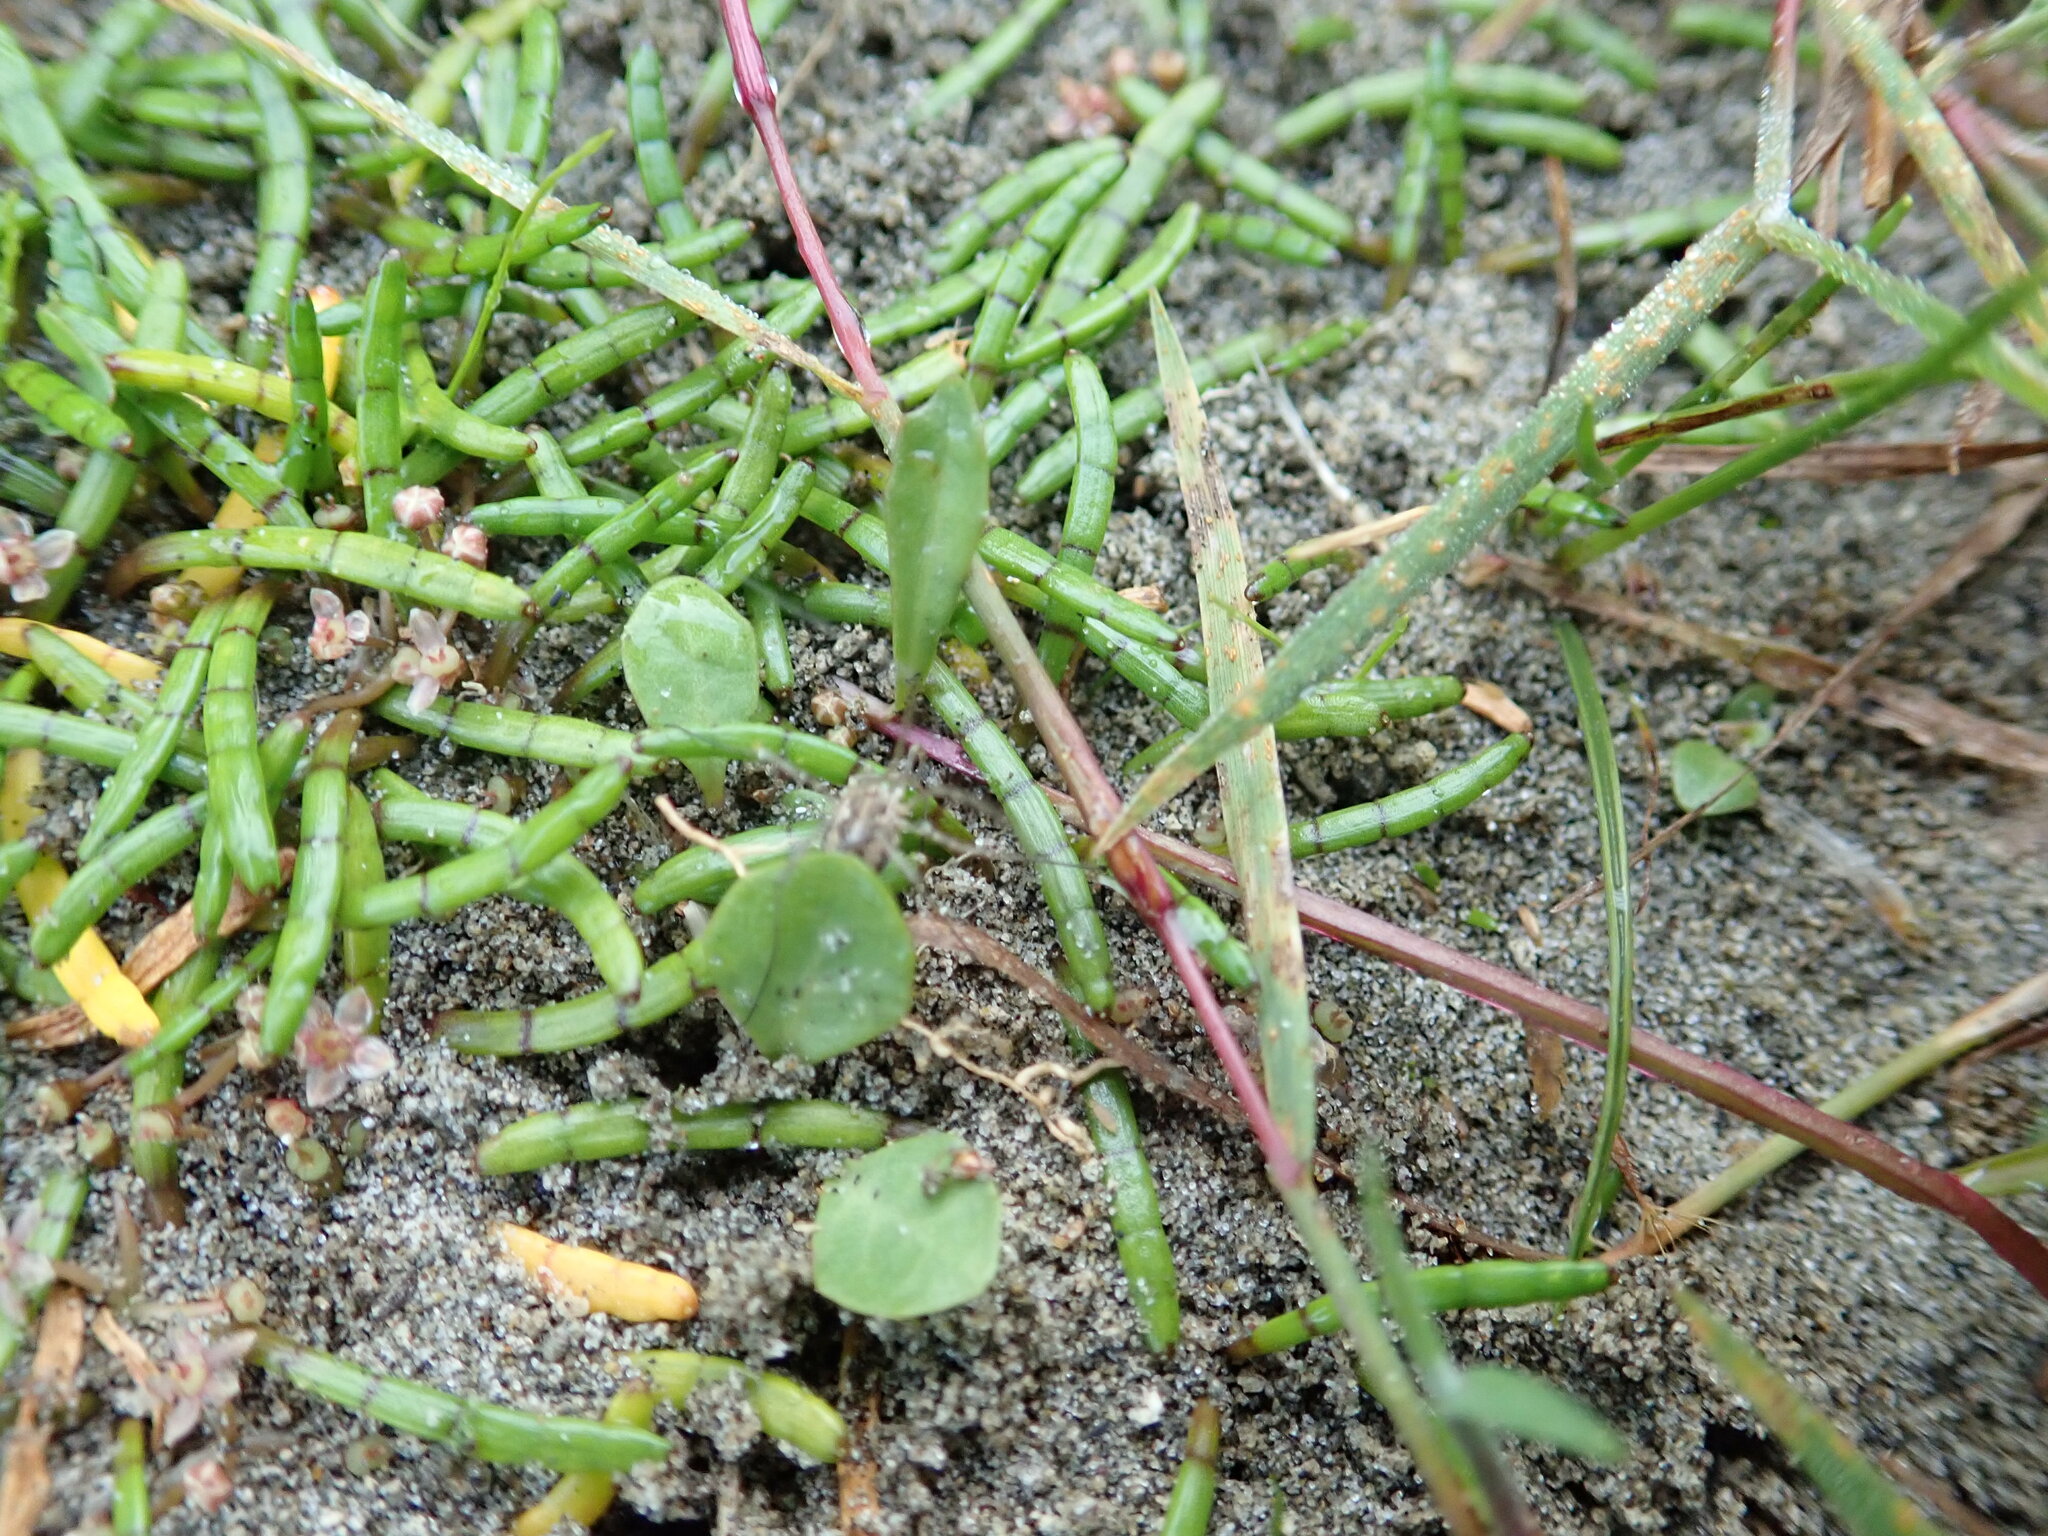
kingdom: Plantae
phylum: Tracheophyta
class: Magnoliopsida
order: Apiales
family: Apiaceae
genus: Lilaeopsis
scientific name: Lilaeopsis novae-zelandiae
